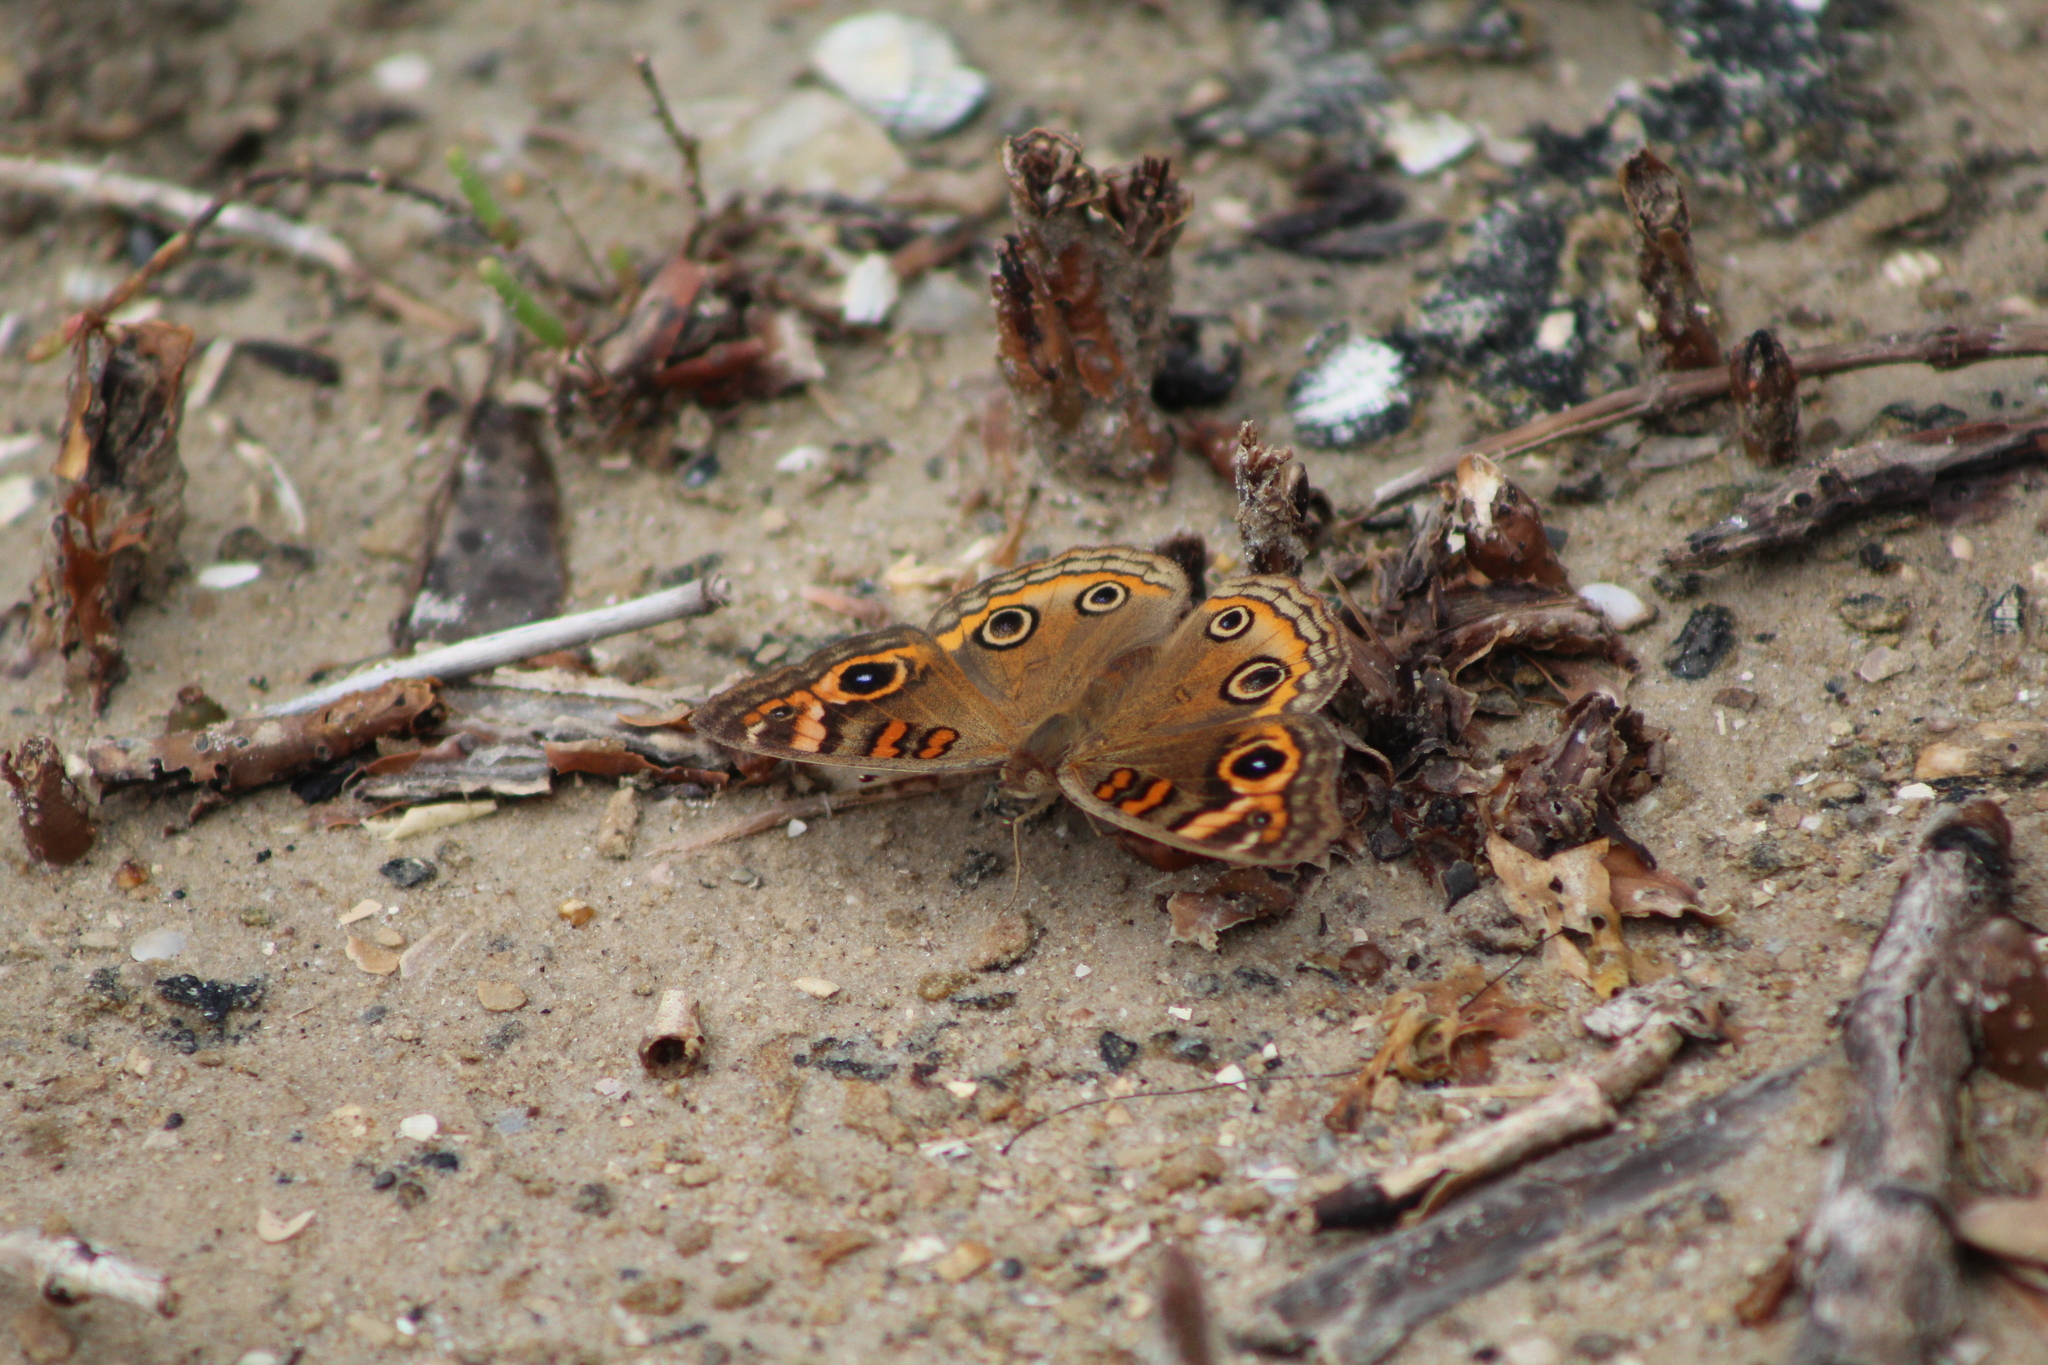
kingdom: Animalia
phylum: Arthropoda
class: Insecta
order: Lepidoptera
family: Nymphalidae
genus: Junonia
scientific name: Junonia neildi
